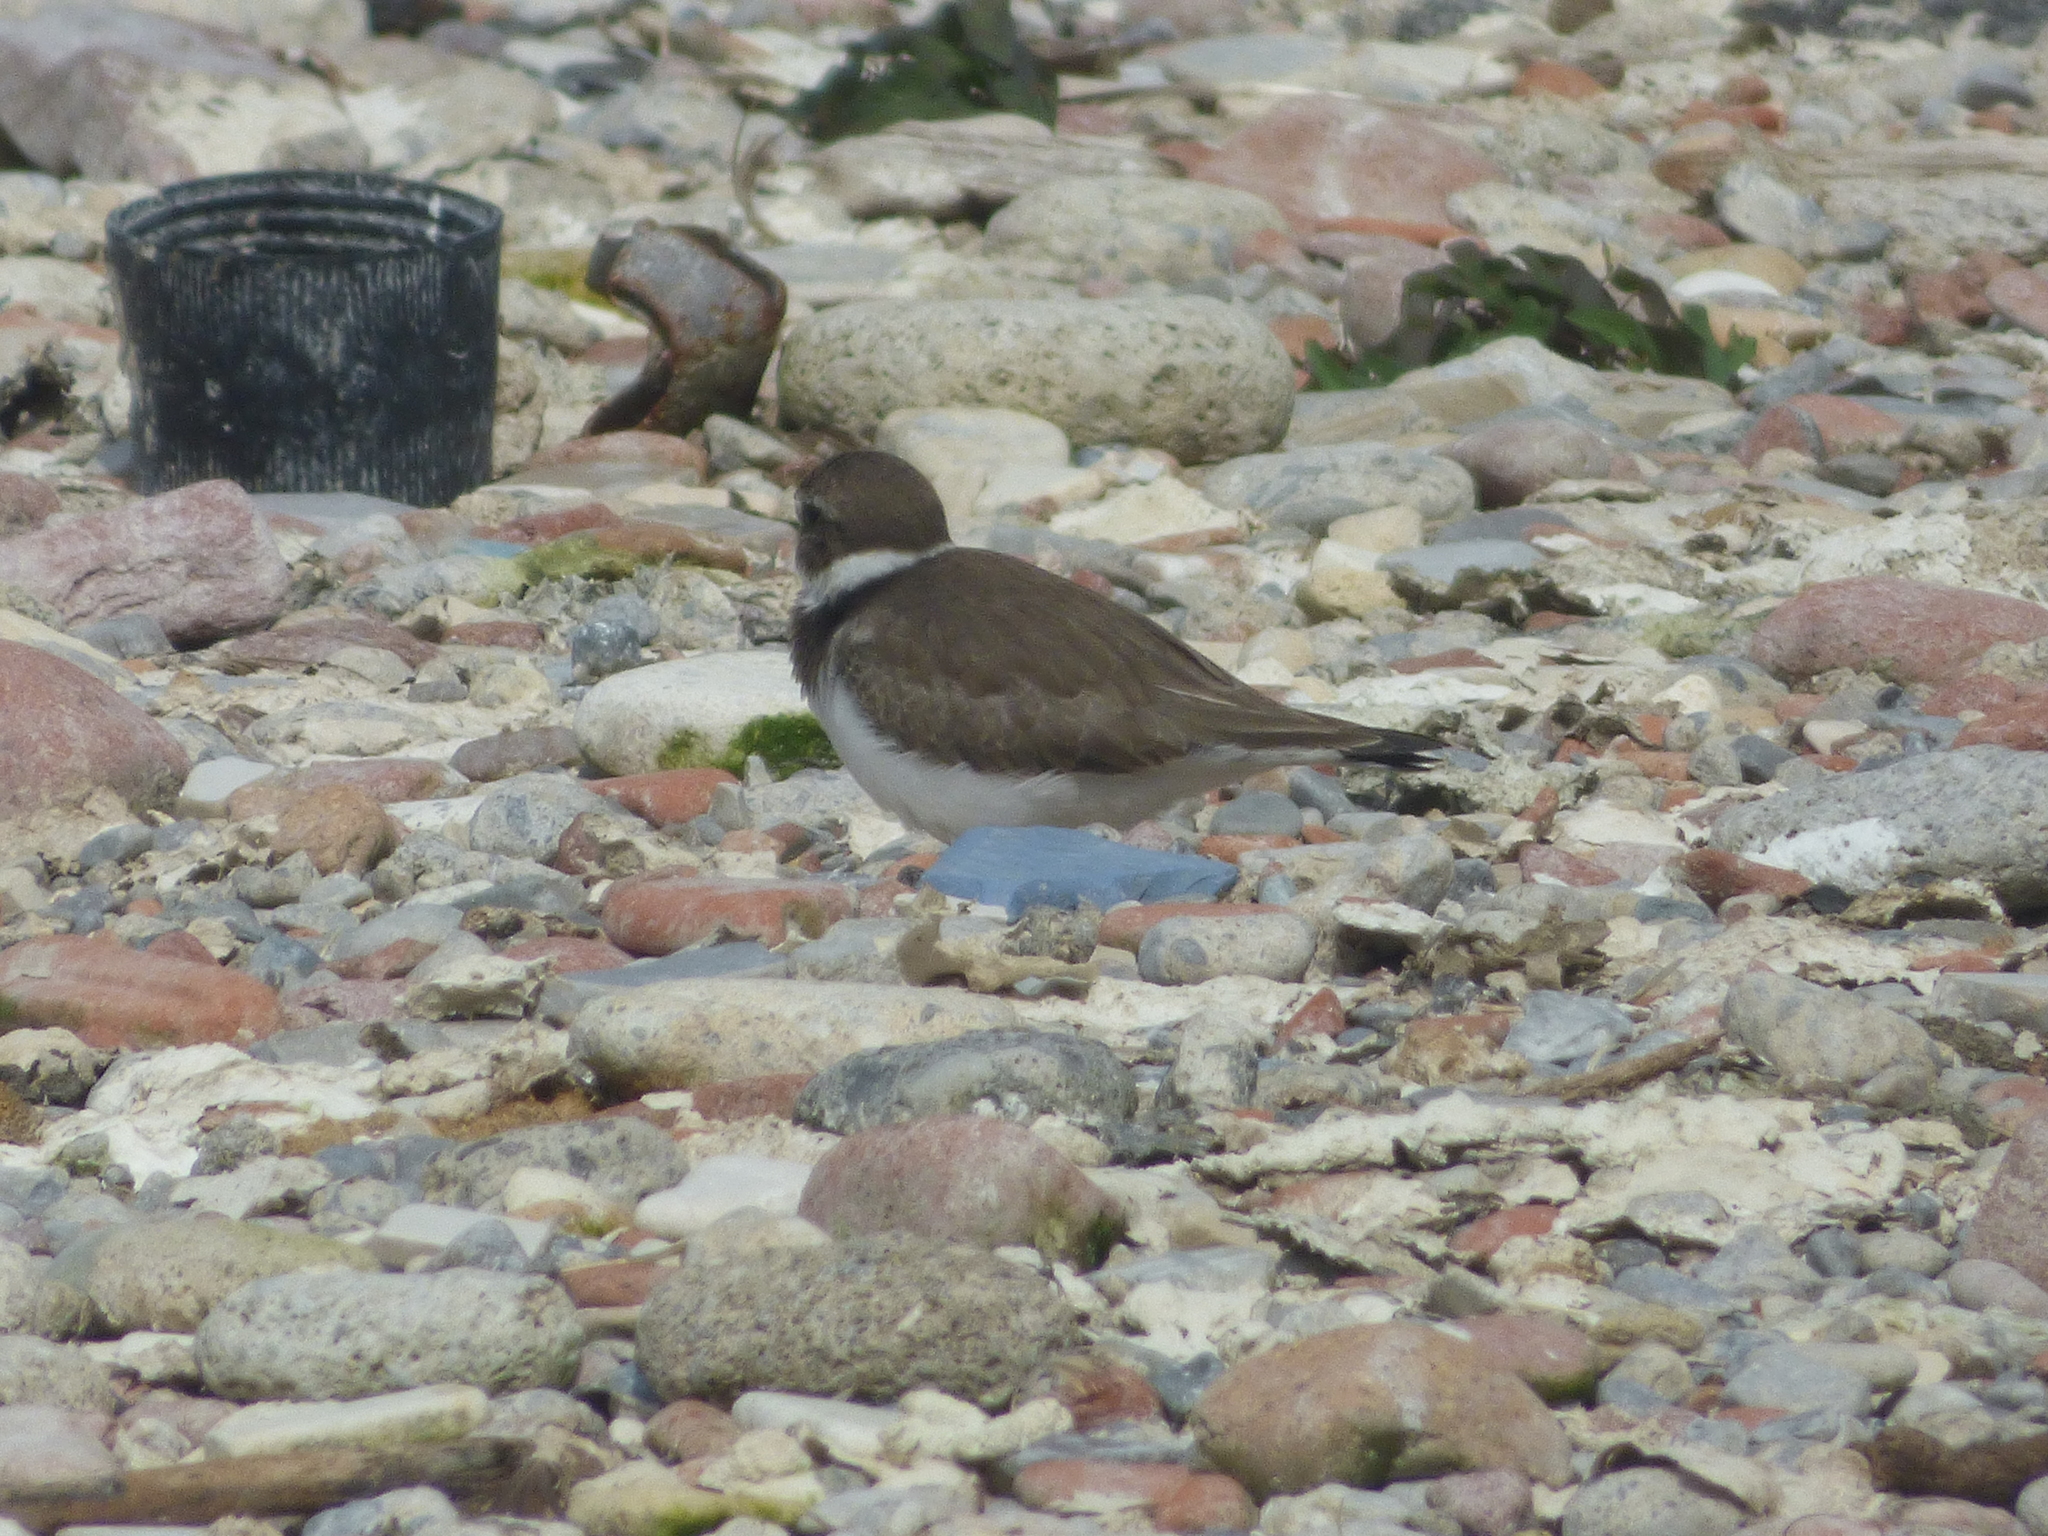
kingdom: Animalia
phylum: Chordata
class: Aves
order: Charadriiformes
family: Charadriidae
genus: Charadrius
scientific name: Charadrius semipalmatus
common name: Semipalmated plover
